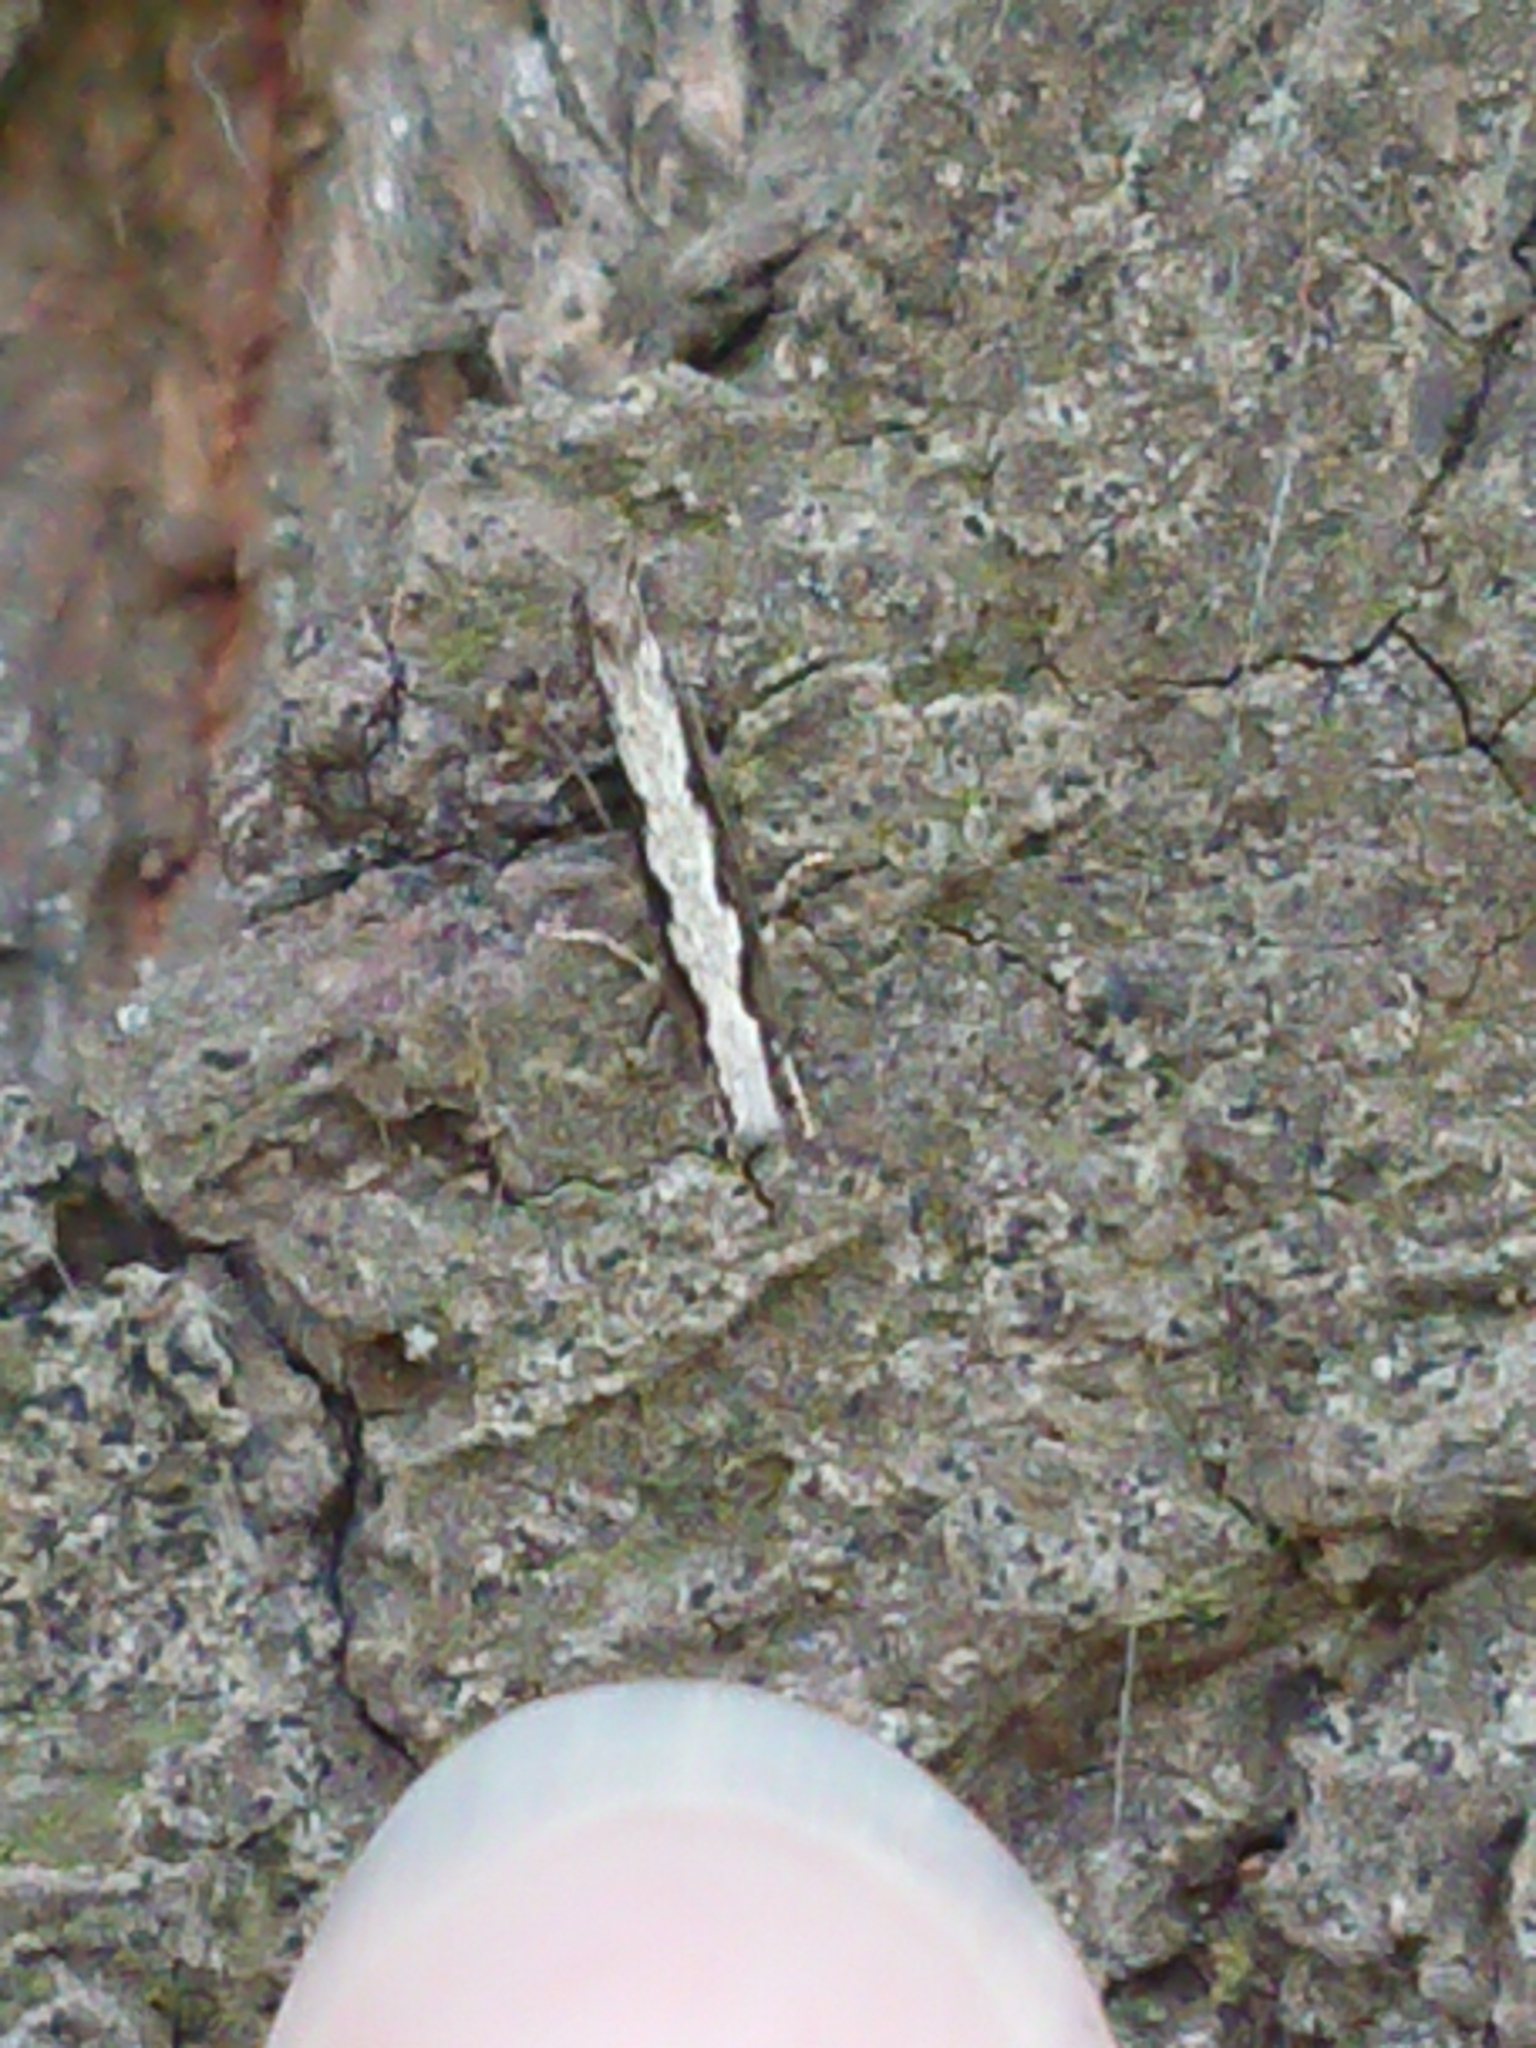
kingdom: Animalia
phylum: Arthropoda
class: Insecta
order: Lepidoptera
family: Tineidae
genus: Erechthias
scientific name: Erechthias fulguritella
